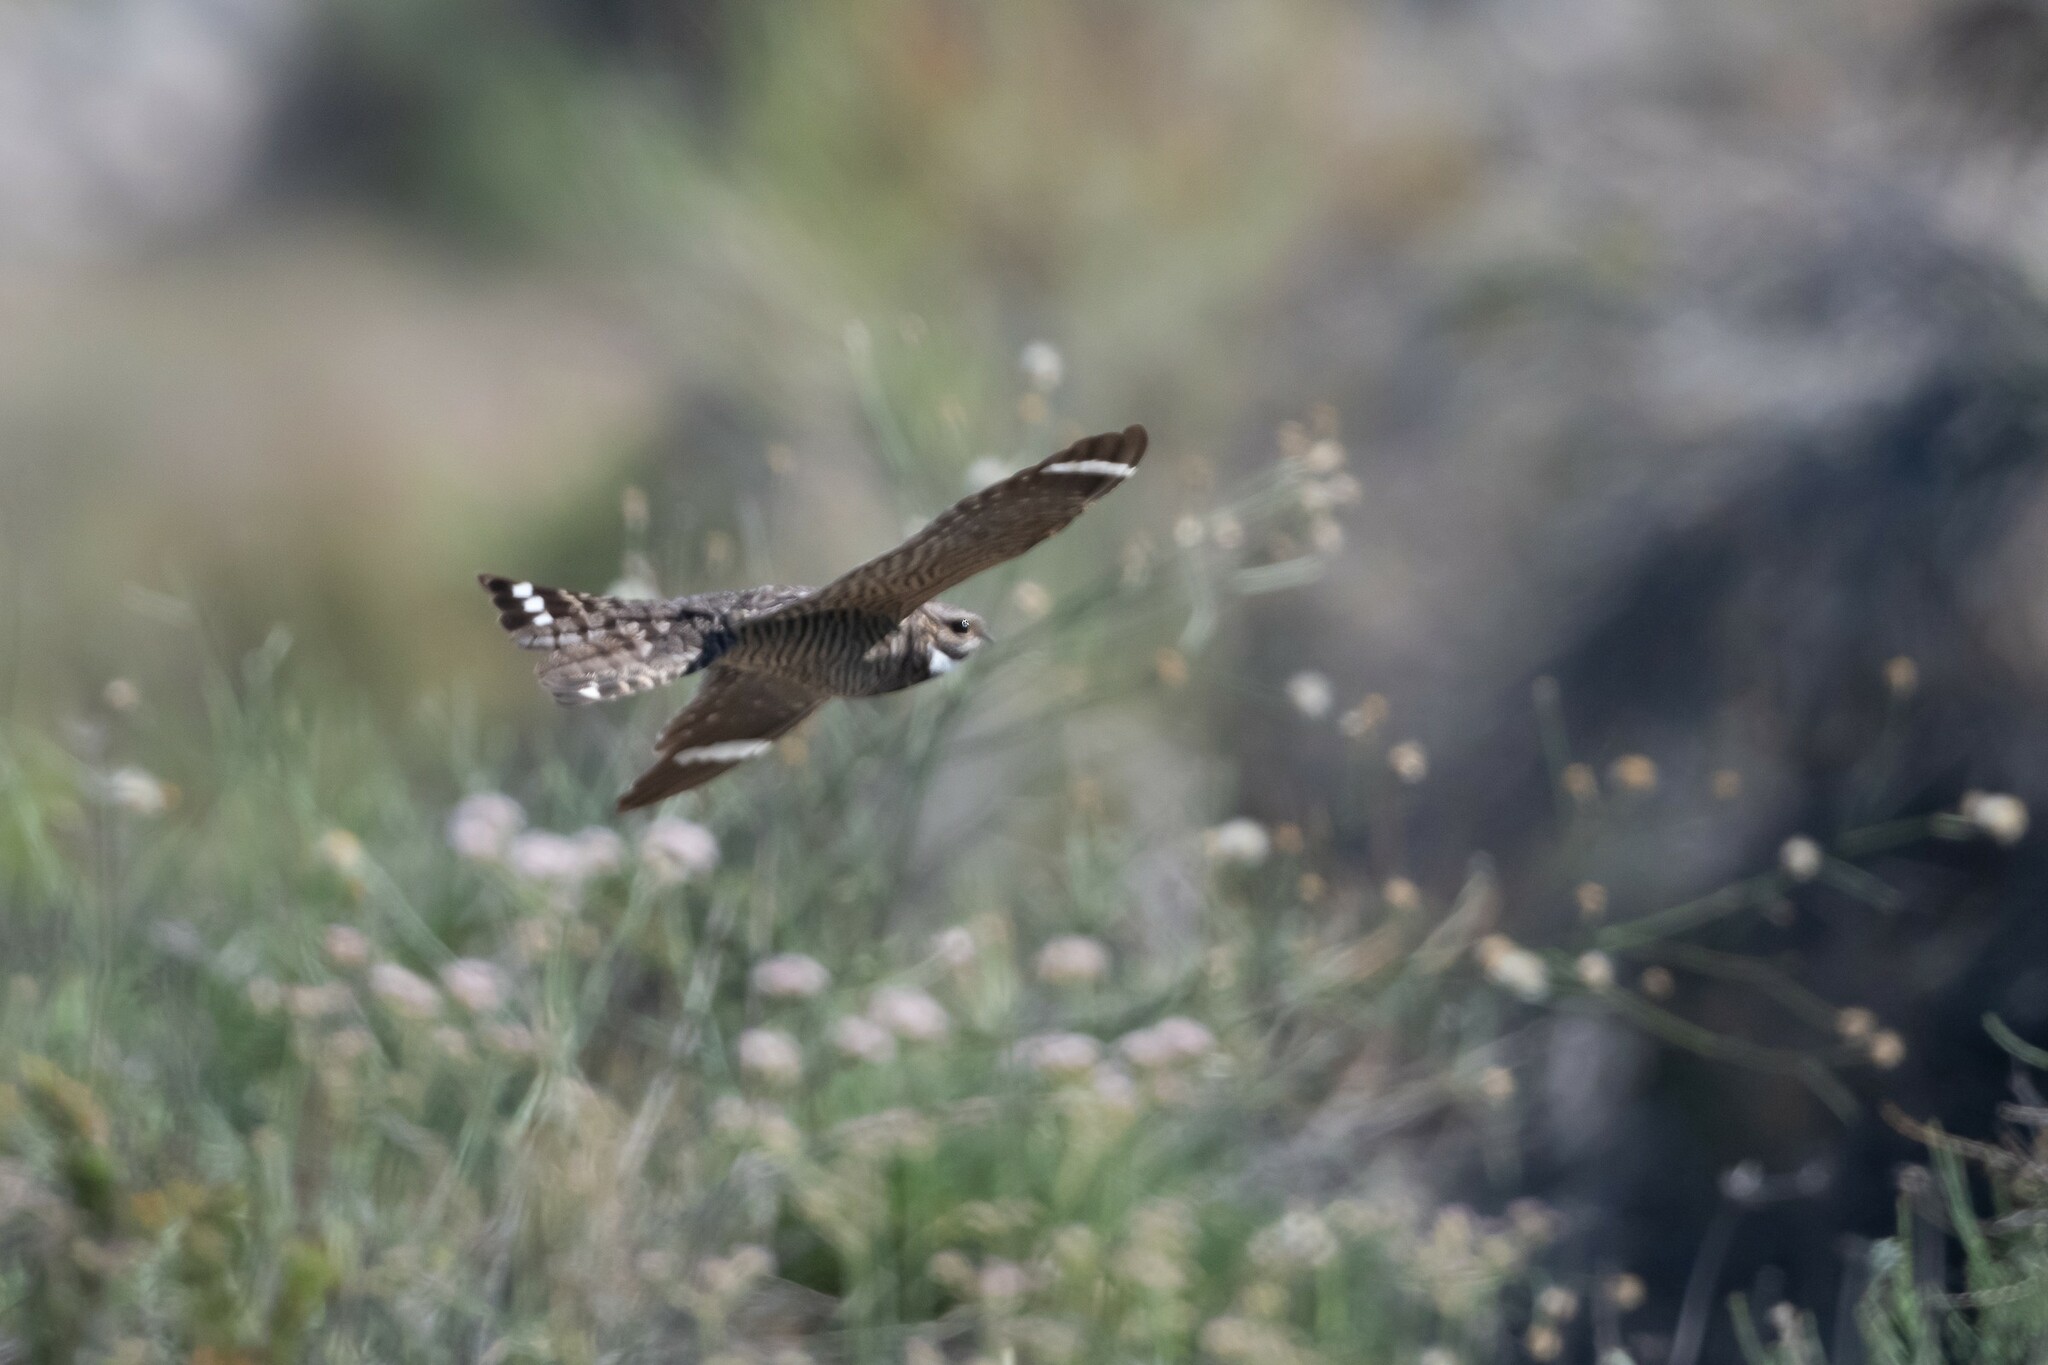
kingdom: Animalia
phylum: Chordata
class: Aves
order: Caprimulgiformes
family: Caprimulgidae
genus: Chordeiles
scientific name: Chordeiles acutipennis
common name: Lesser nighthawk
